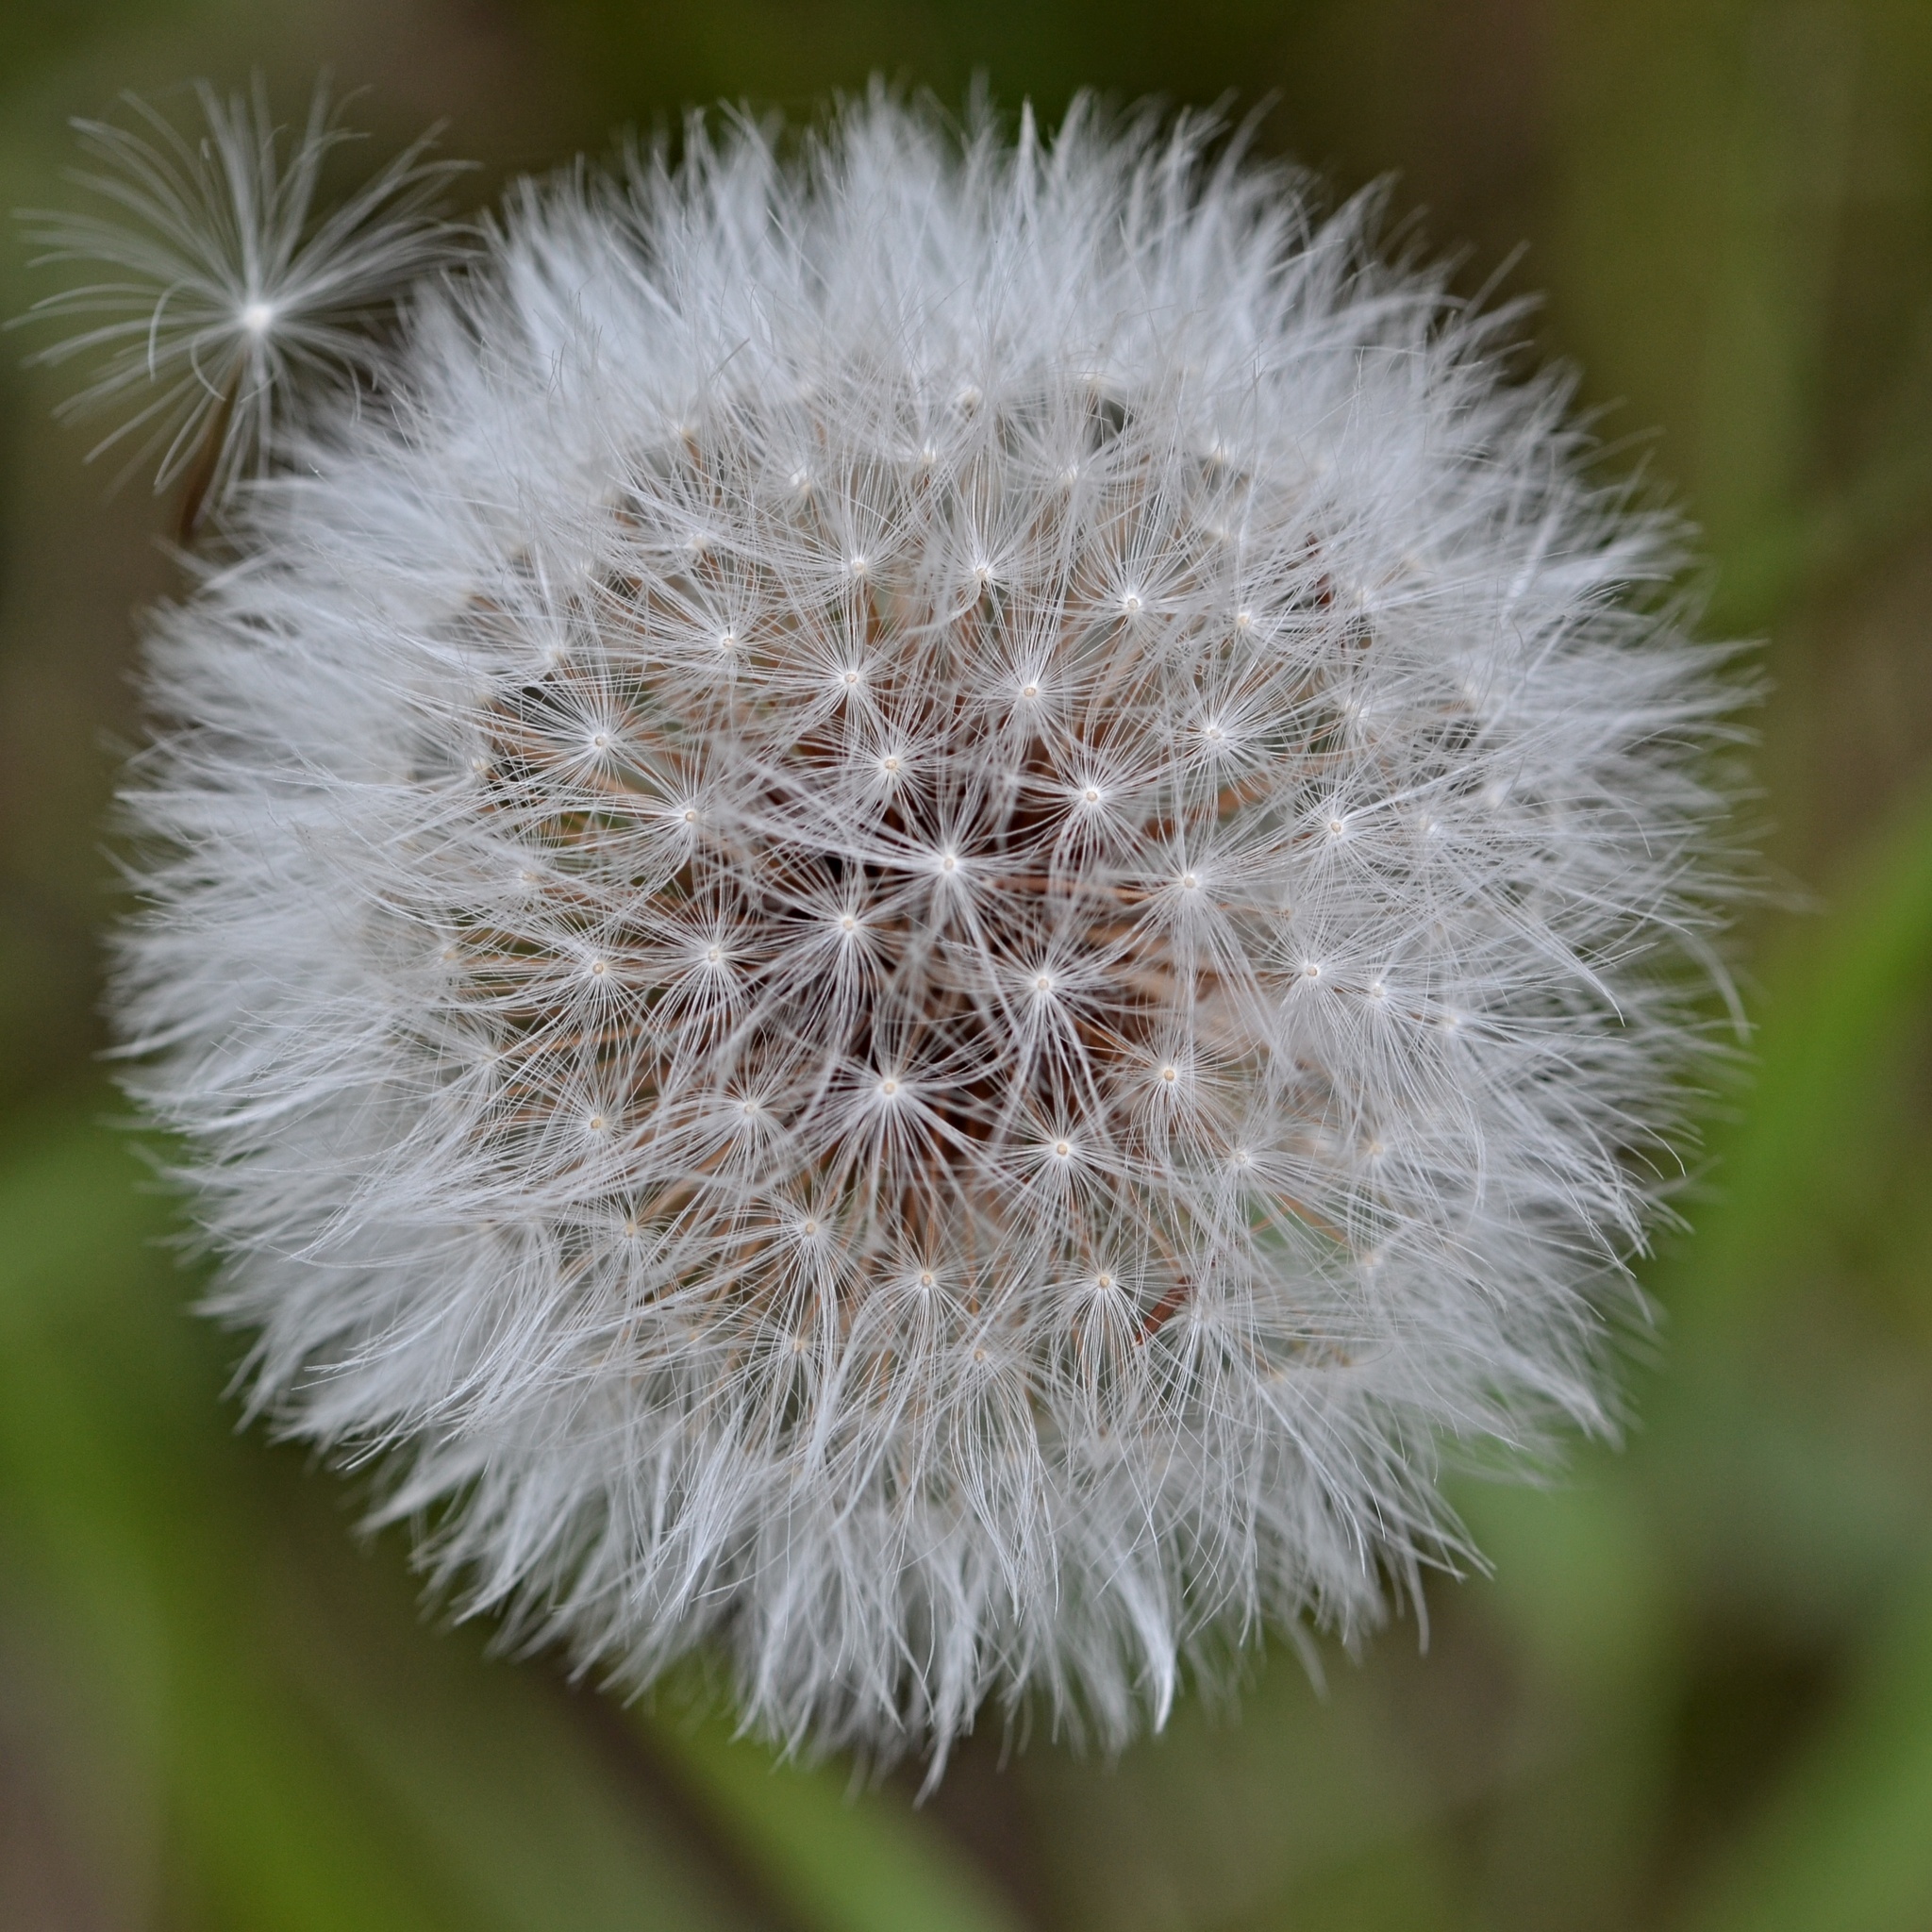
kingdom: Plantae
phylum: Tracheophyta
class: Magnoliopsida
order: Asterales
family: Asteraceae
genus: Crepis
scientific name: Crepis foetida
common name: Stinking hawk's-beard
